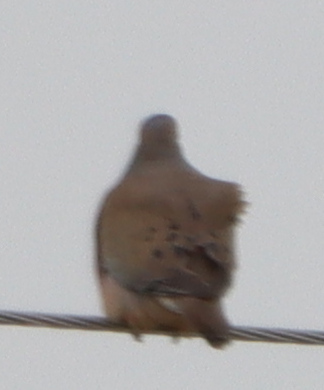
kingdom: Animalia
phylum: Chordata
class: Aves
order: Columbiformes
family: Columbidae
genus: Zenaida
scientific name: Zenaida macroura
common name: Mourning dove
